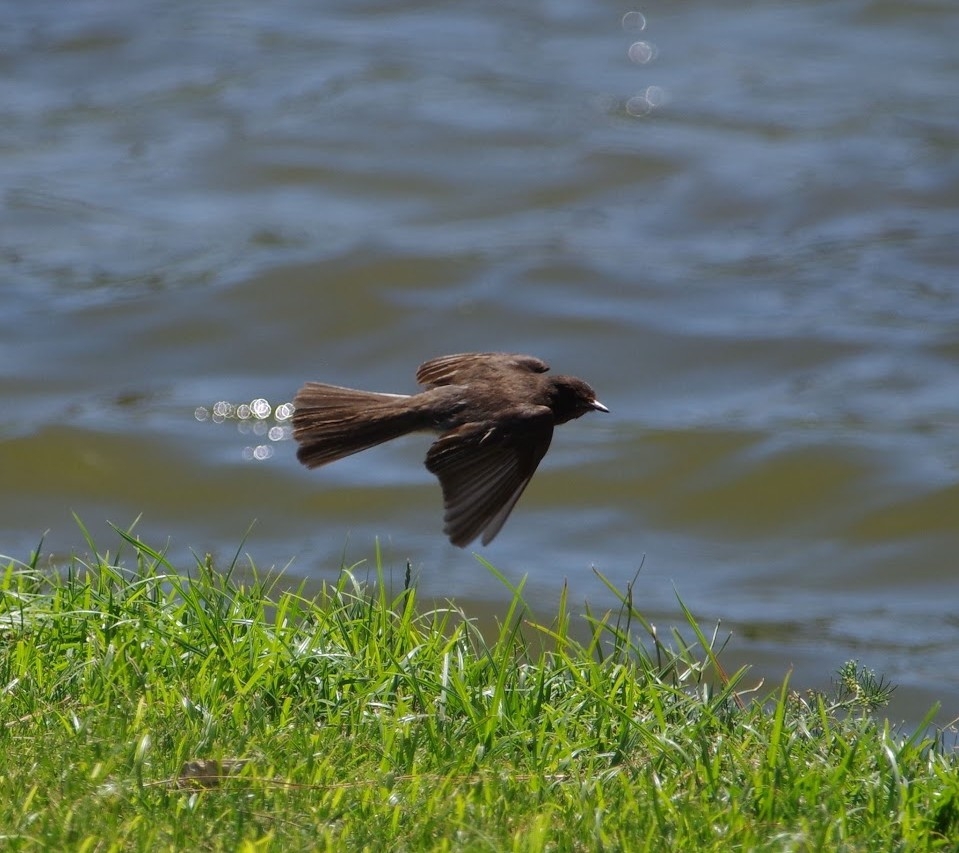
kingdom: Animalia
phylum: Chordata
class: Aves
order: Passeriformes
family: Tyrannidae
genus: Sayornis
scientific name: Sayornis nigricans
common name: Black phoebe
